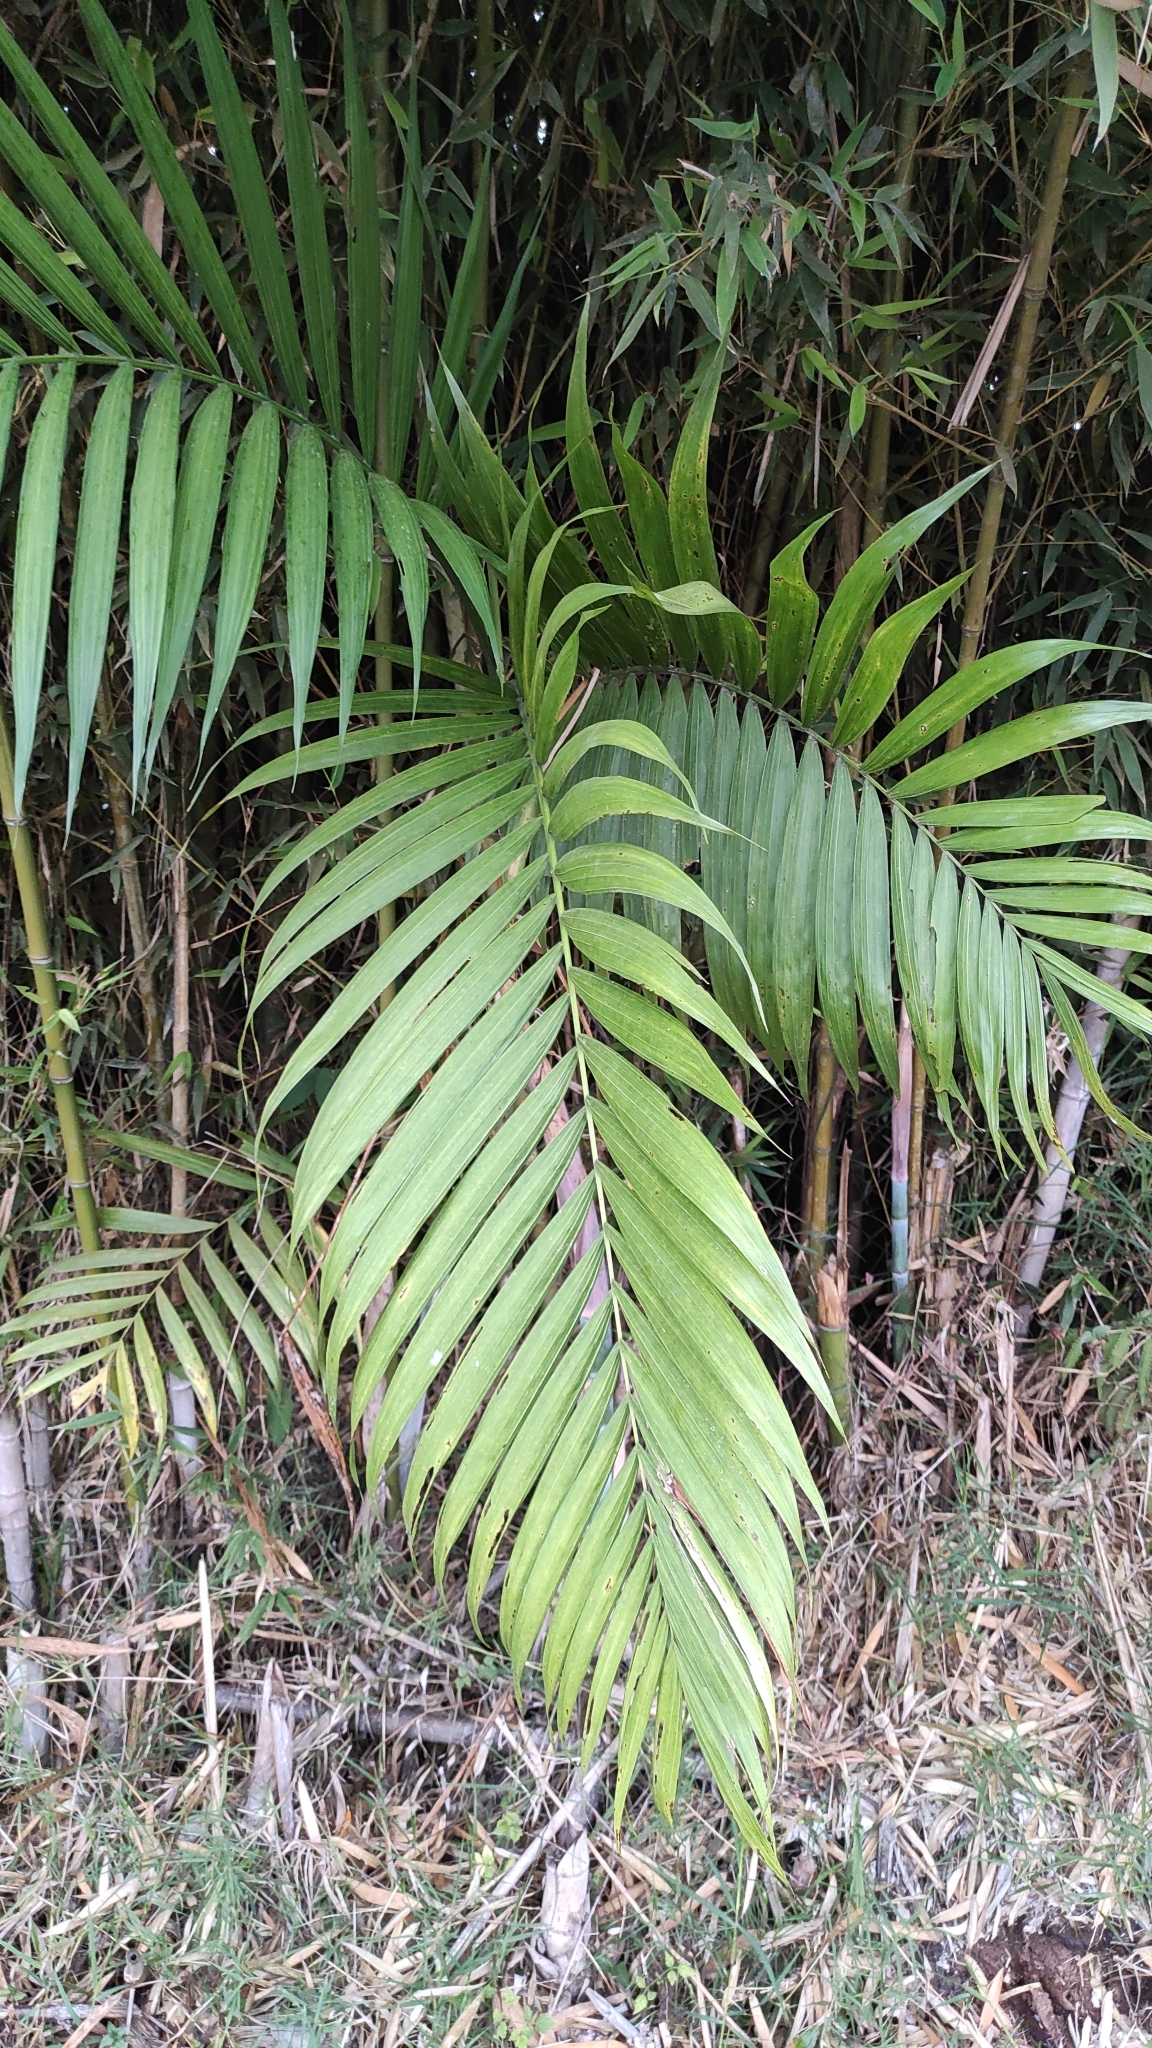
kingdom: Plantae
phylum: Tracheophyta
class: Liliopsida
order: Arecales
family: Arecaceae
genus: Chamaedorea
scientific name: Chamaedorea tepejilote
